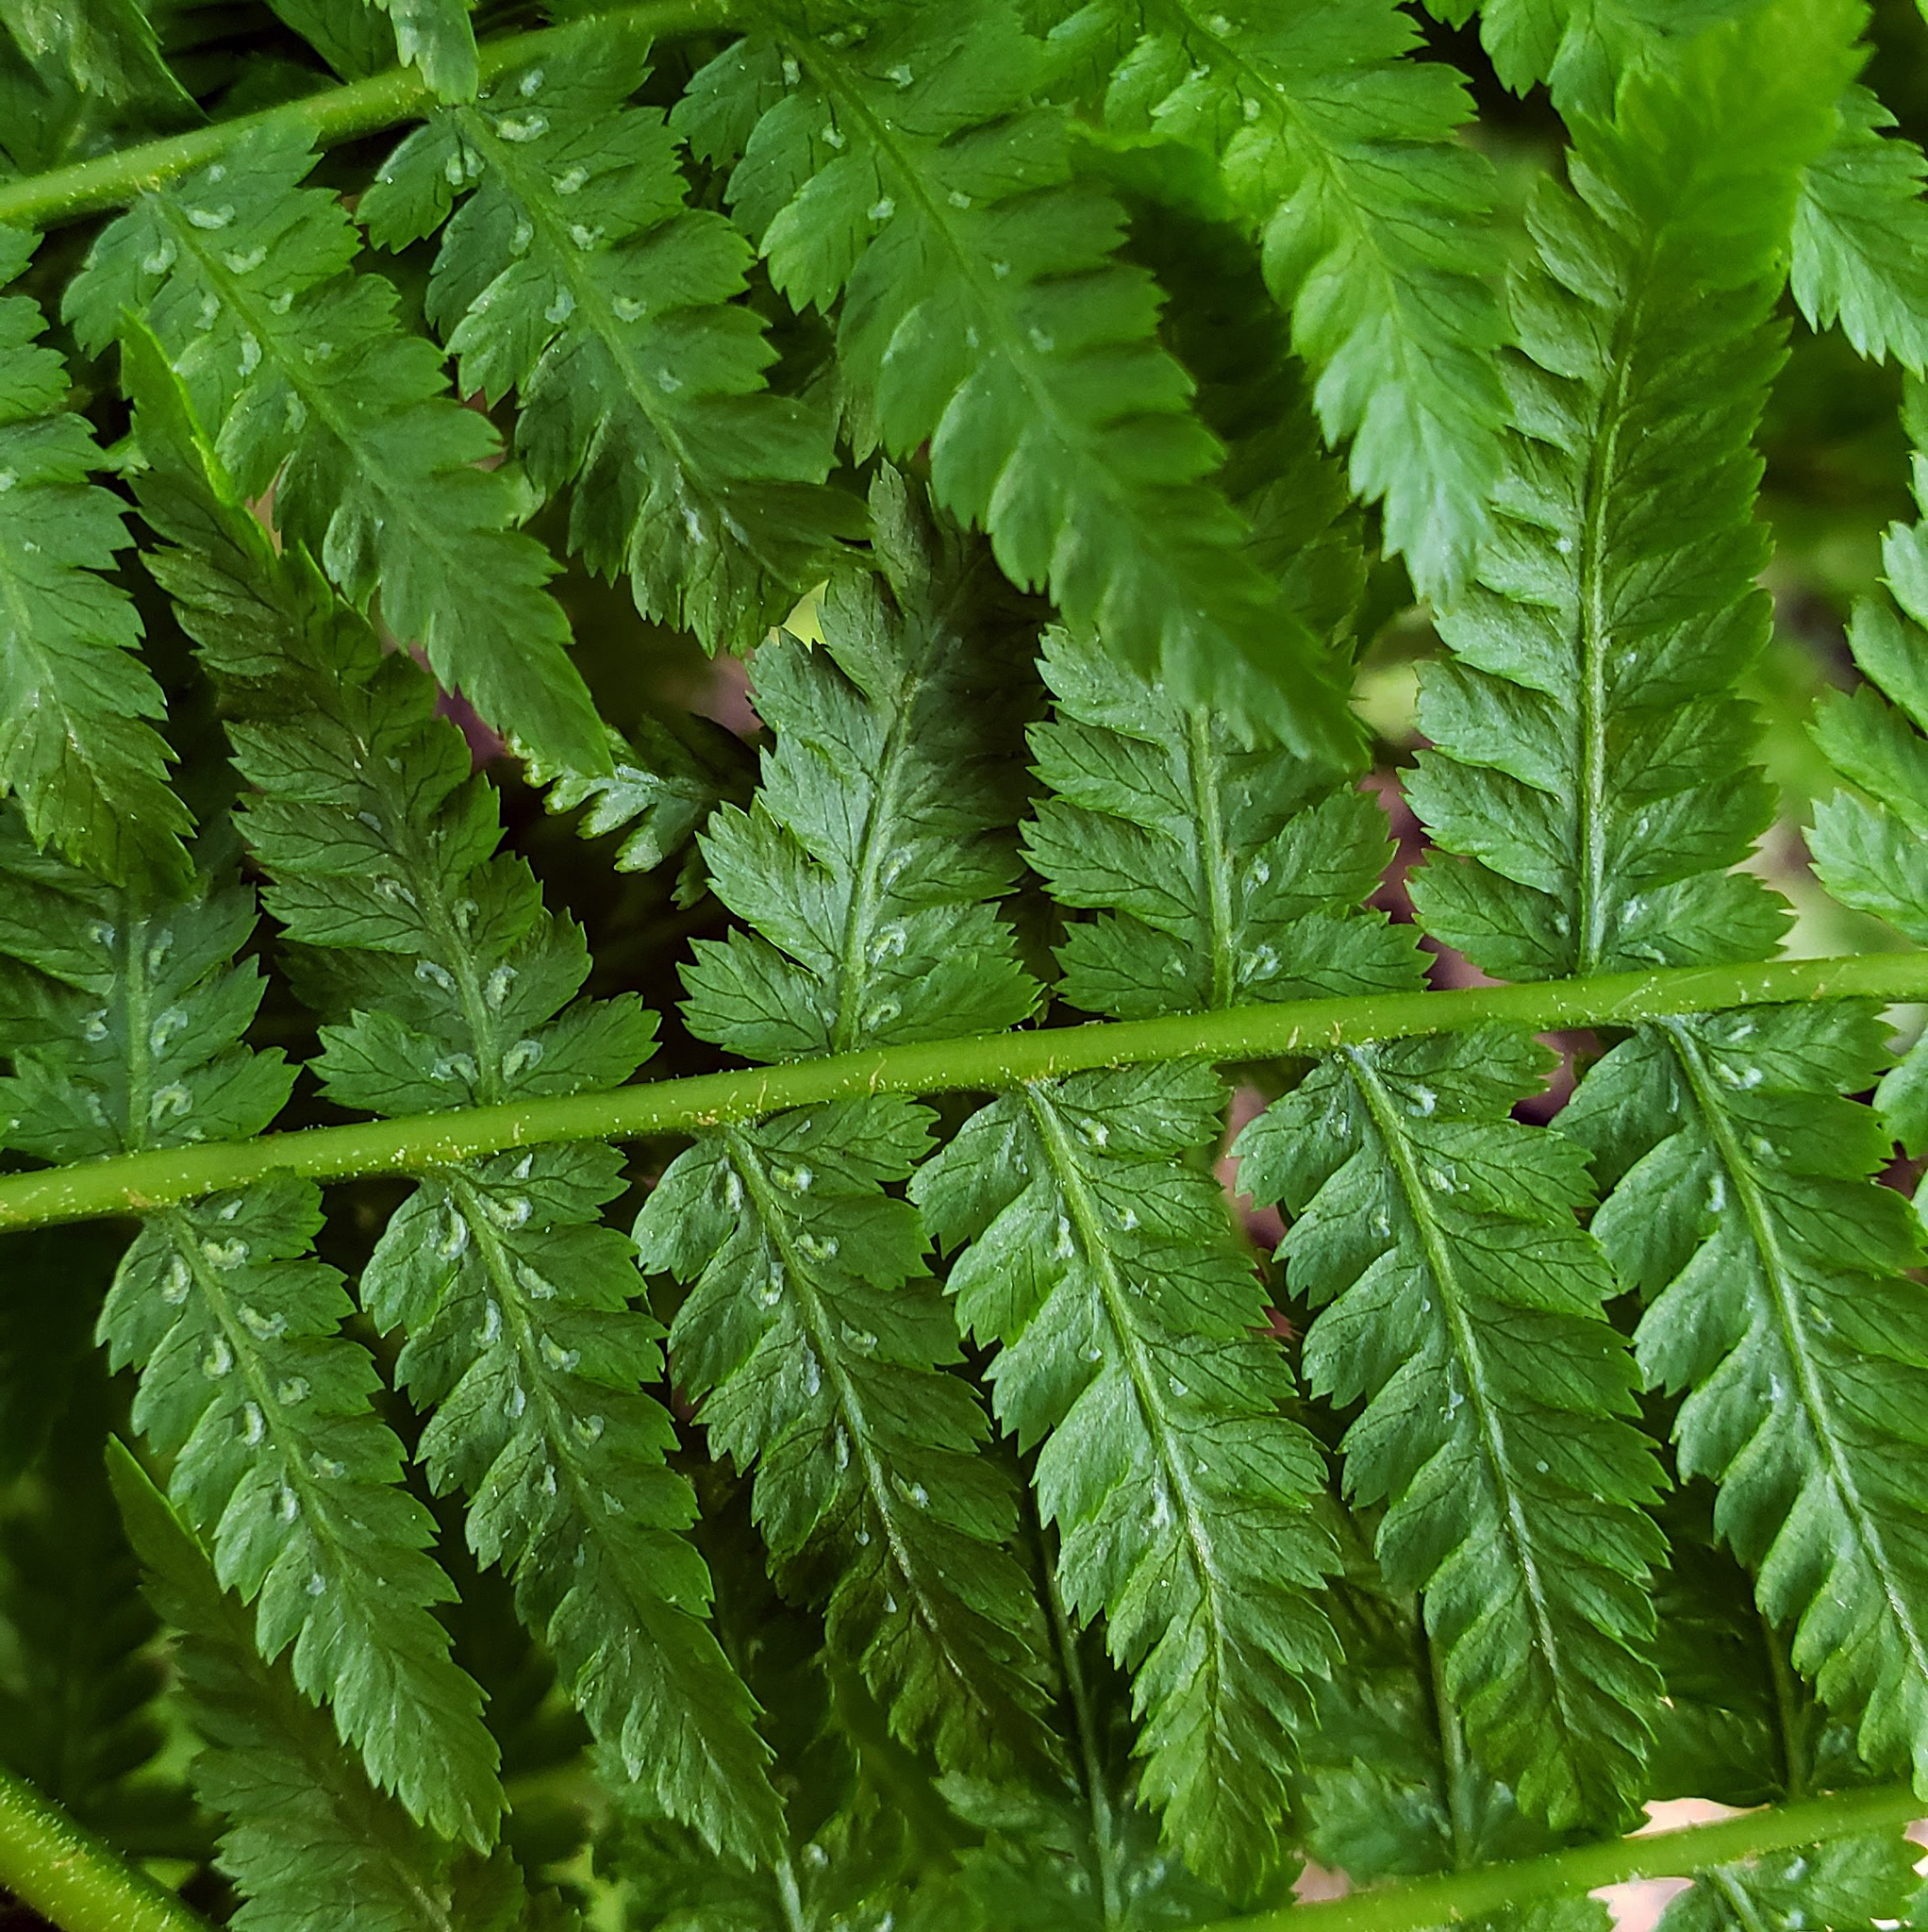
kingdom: Plantae
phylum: Tracheophyta
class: Polypodiopsida
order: Polypodiales
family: Athyriaceae
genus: Athyrium
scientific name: Athyrium angustum
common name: Northern lady fern
